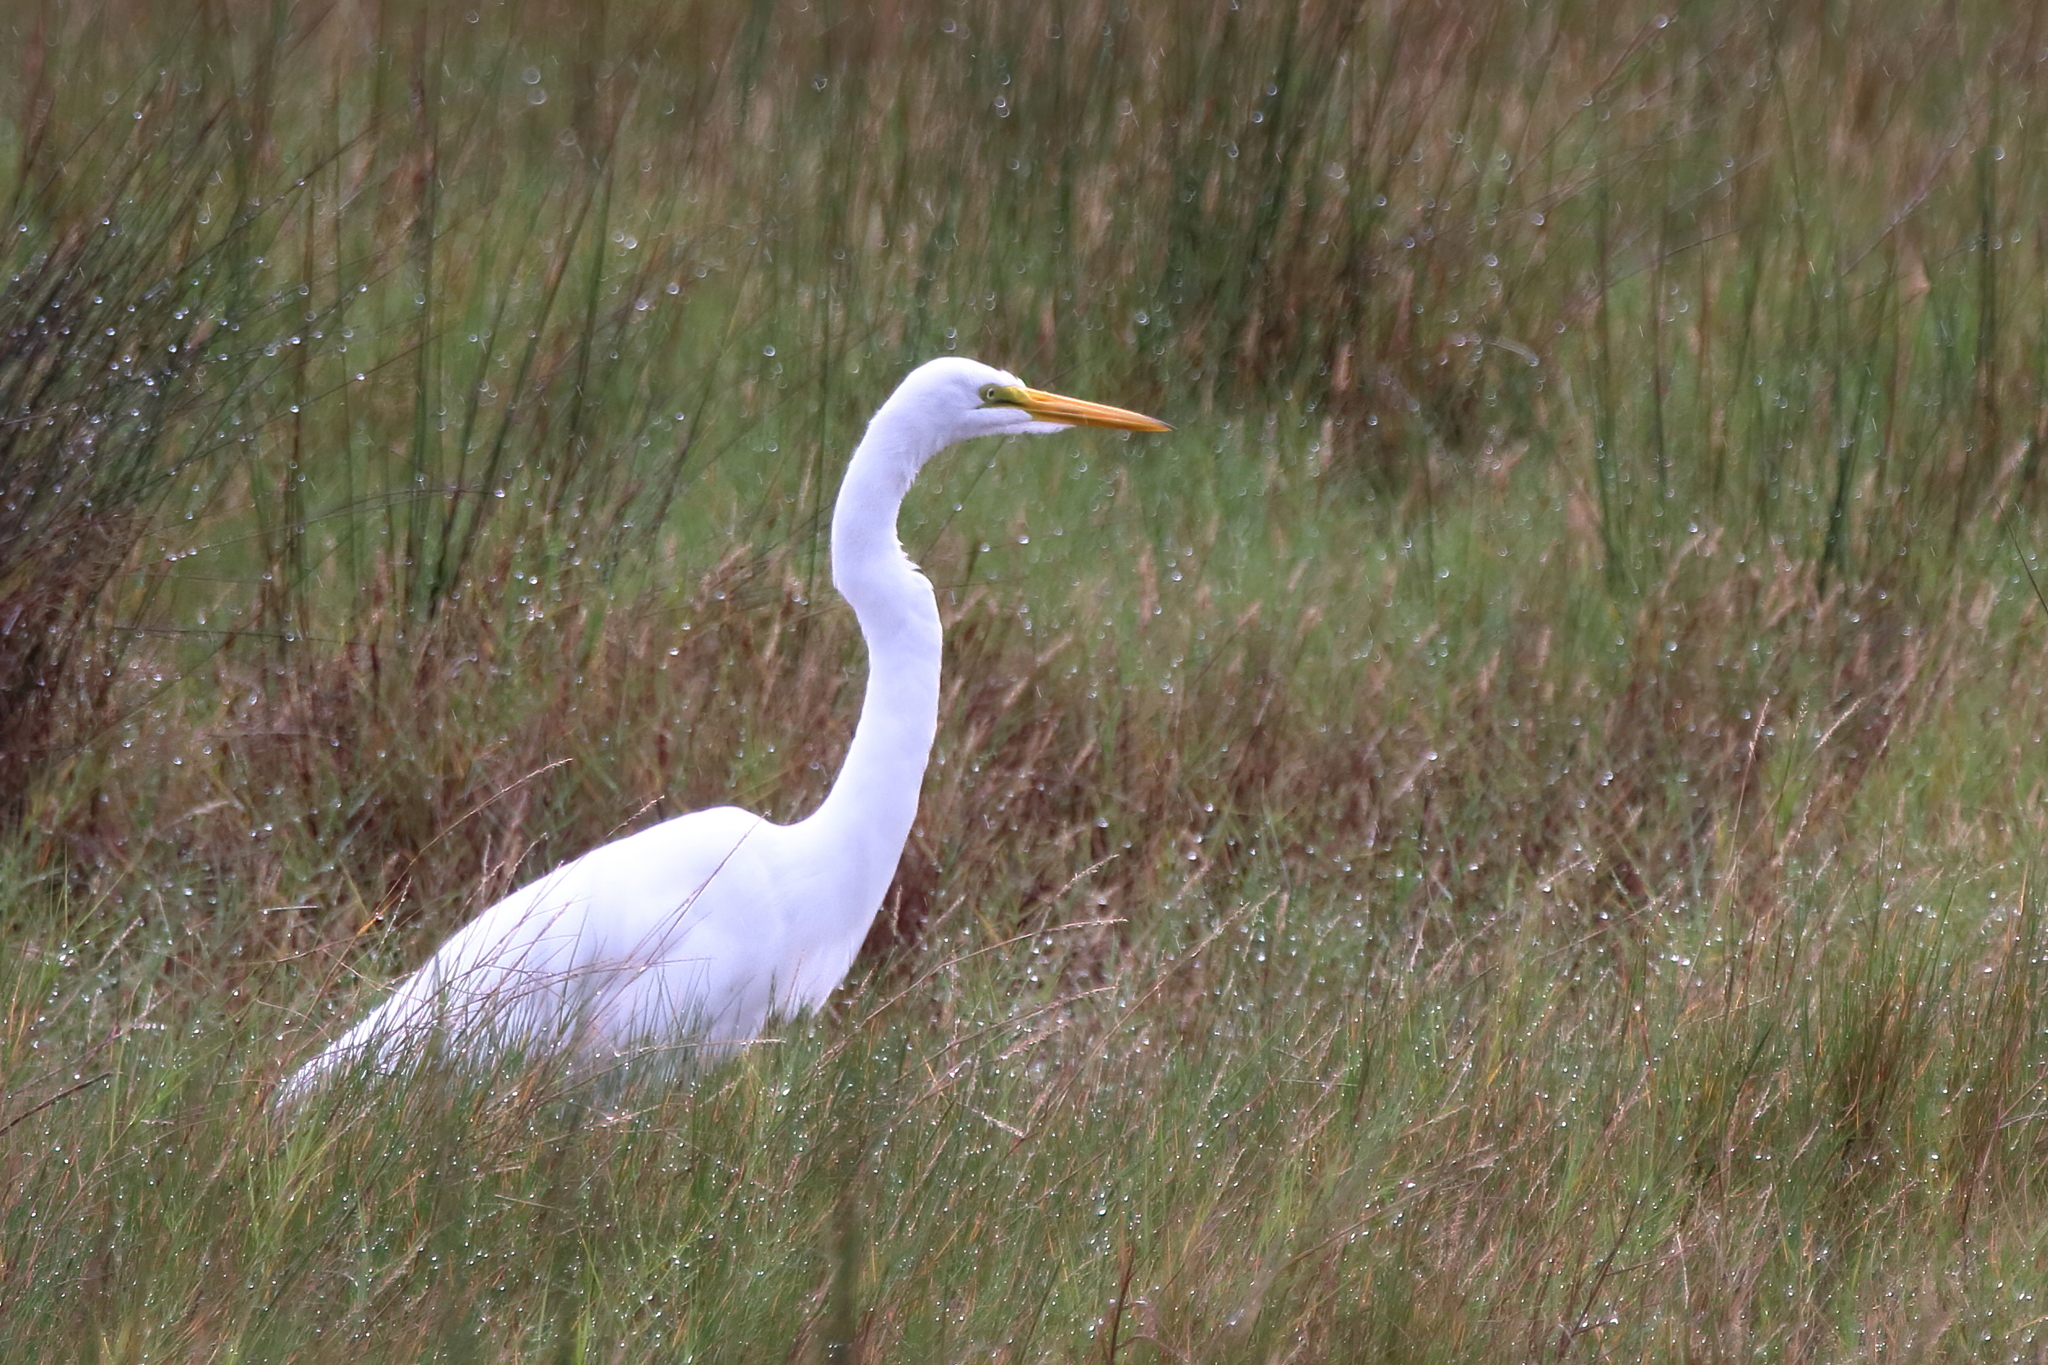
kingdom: Animalia
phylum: Chordata
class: Aves
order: Pelecaniformes
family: Ardeidae
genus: Ardea
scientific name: Ardea alba
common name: Great egret
